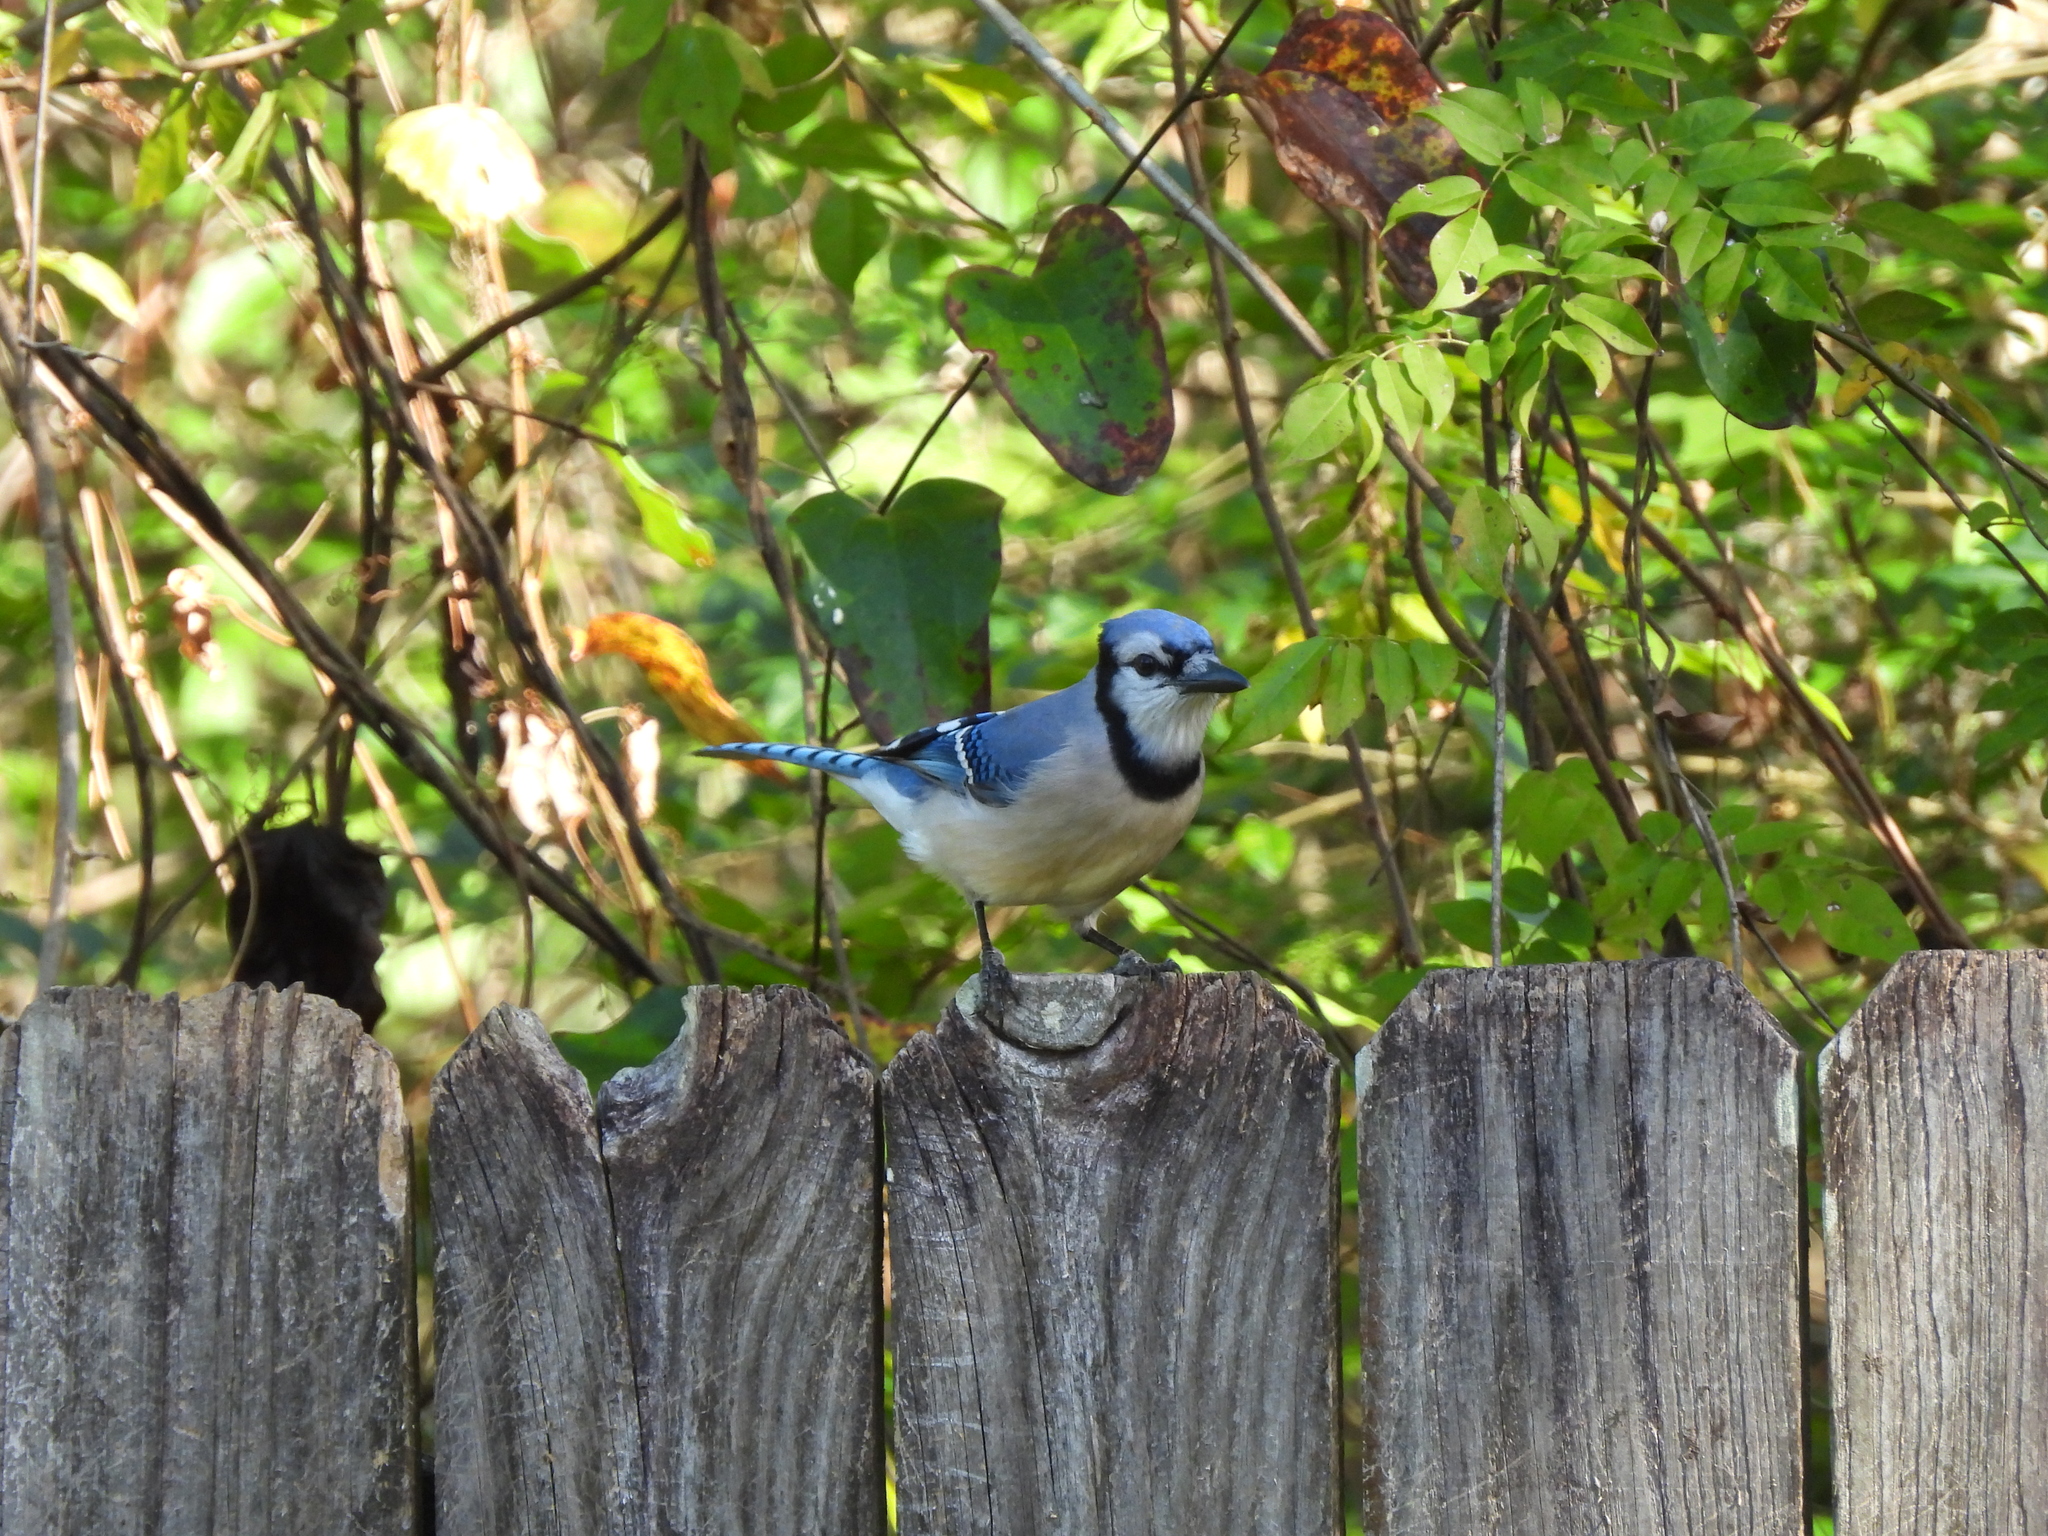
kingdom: Animalia
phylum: Chordata
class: Aves
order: Passeriformes
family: Corvidae
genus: Cyanocitta
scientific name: Cyanocitta cristata
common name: Blue jay
